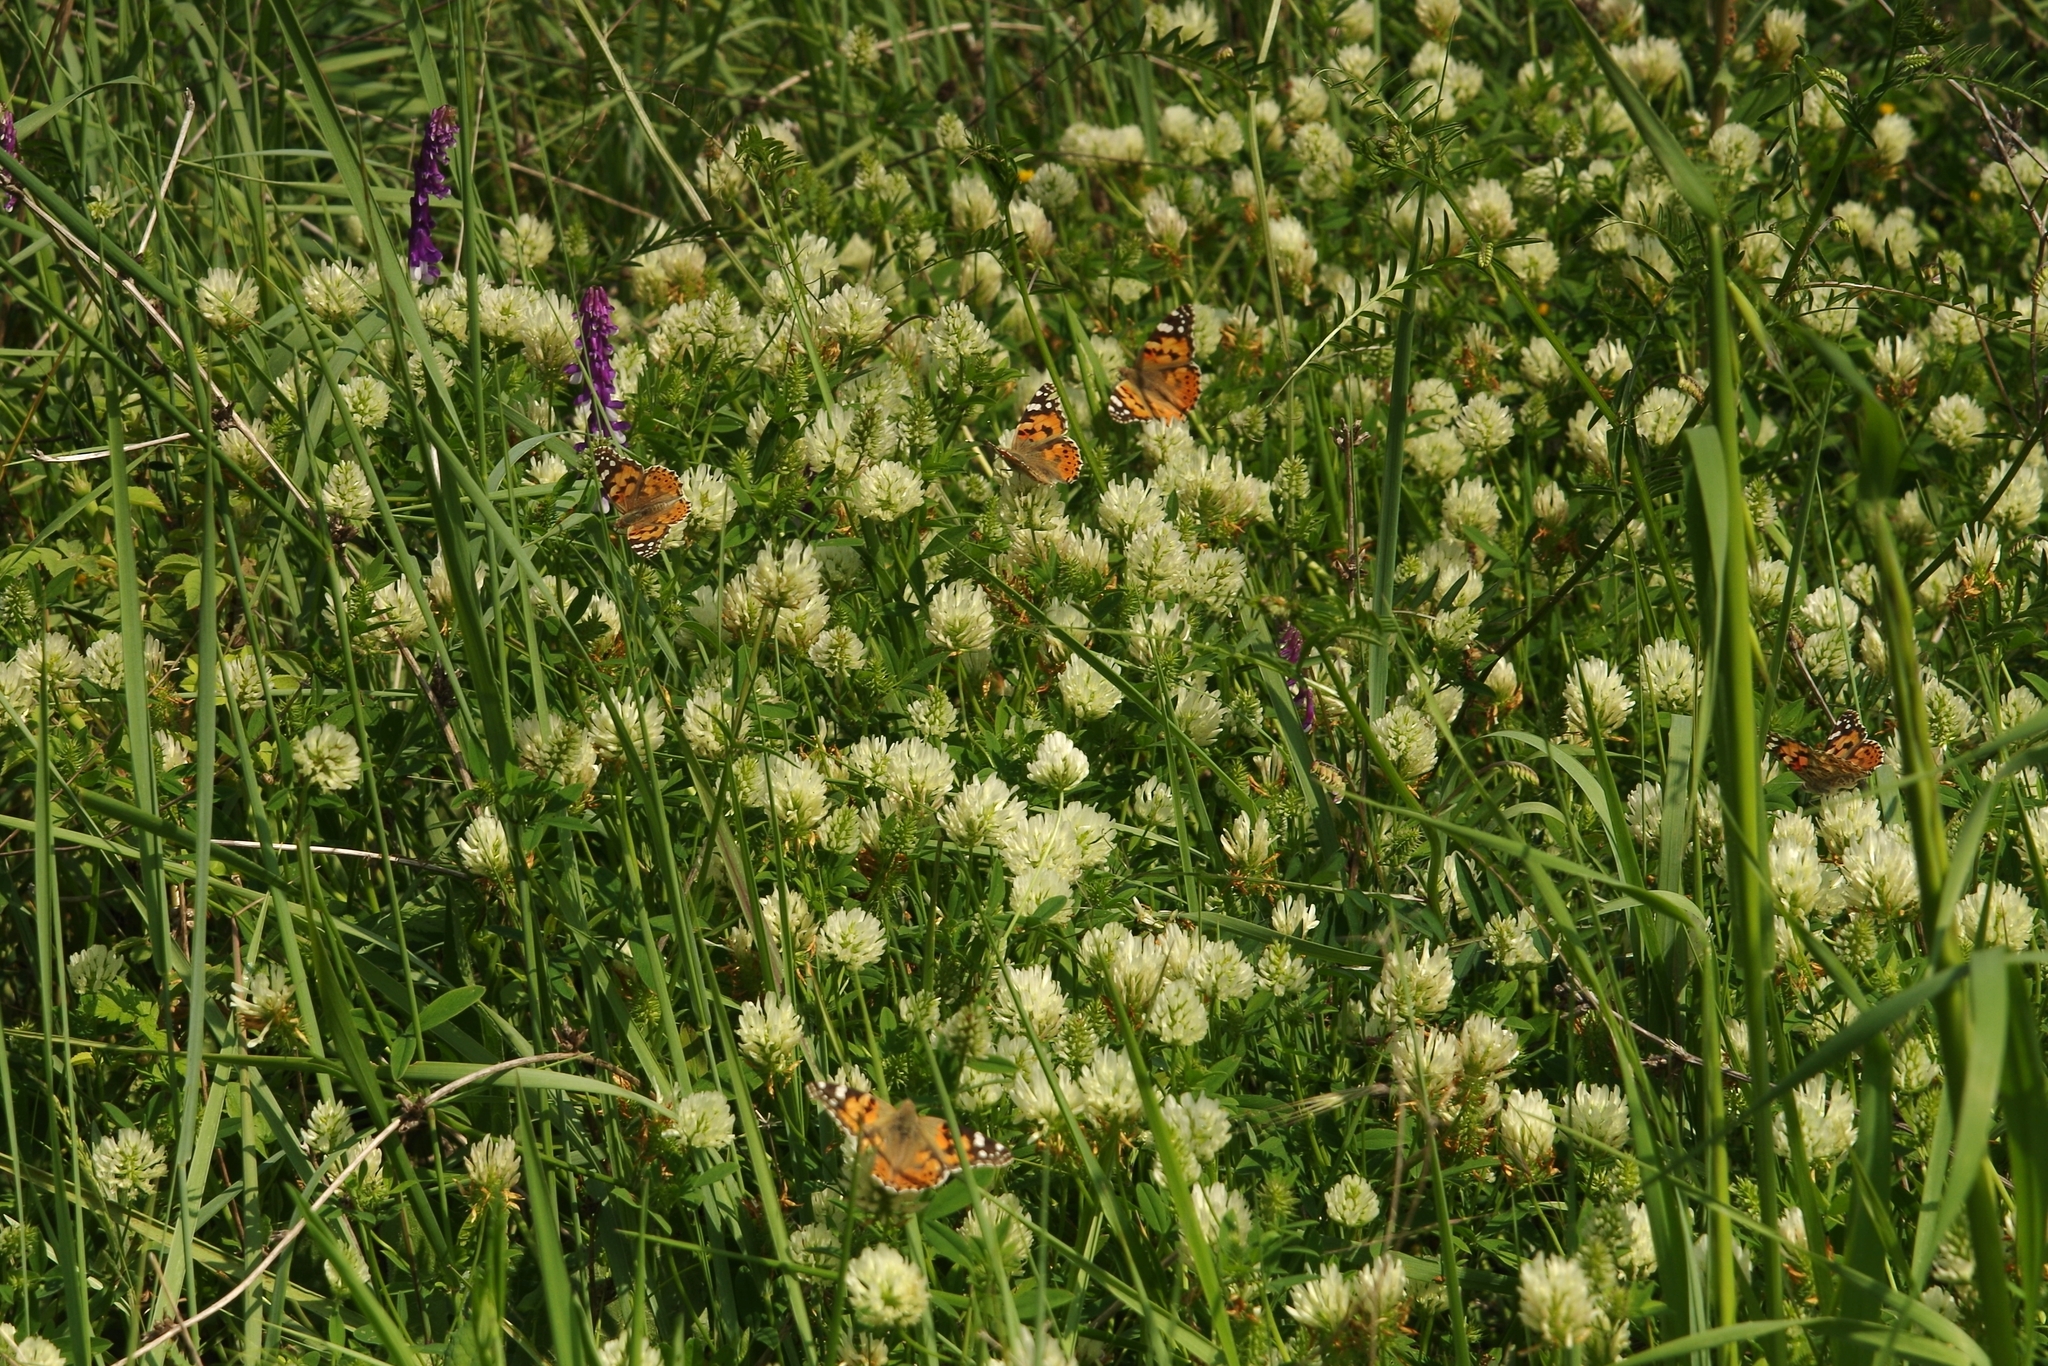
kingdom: Animalia
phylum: Arthropoda
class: Insecta
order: Lepidoptera
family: Nymphalidae
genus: Vanessa
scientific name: Vanessa cardui
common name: Painted lady
